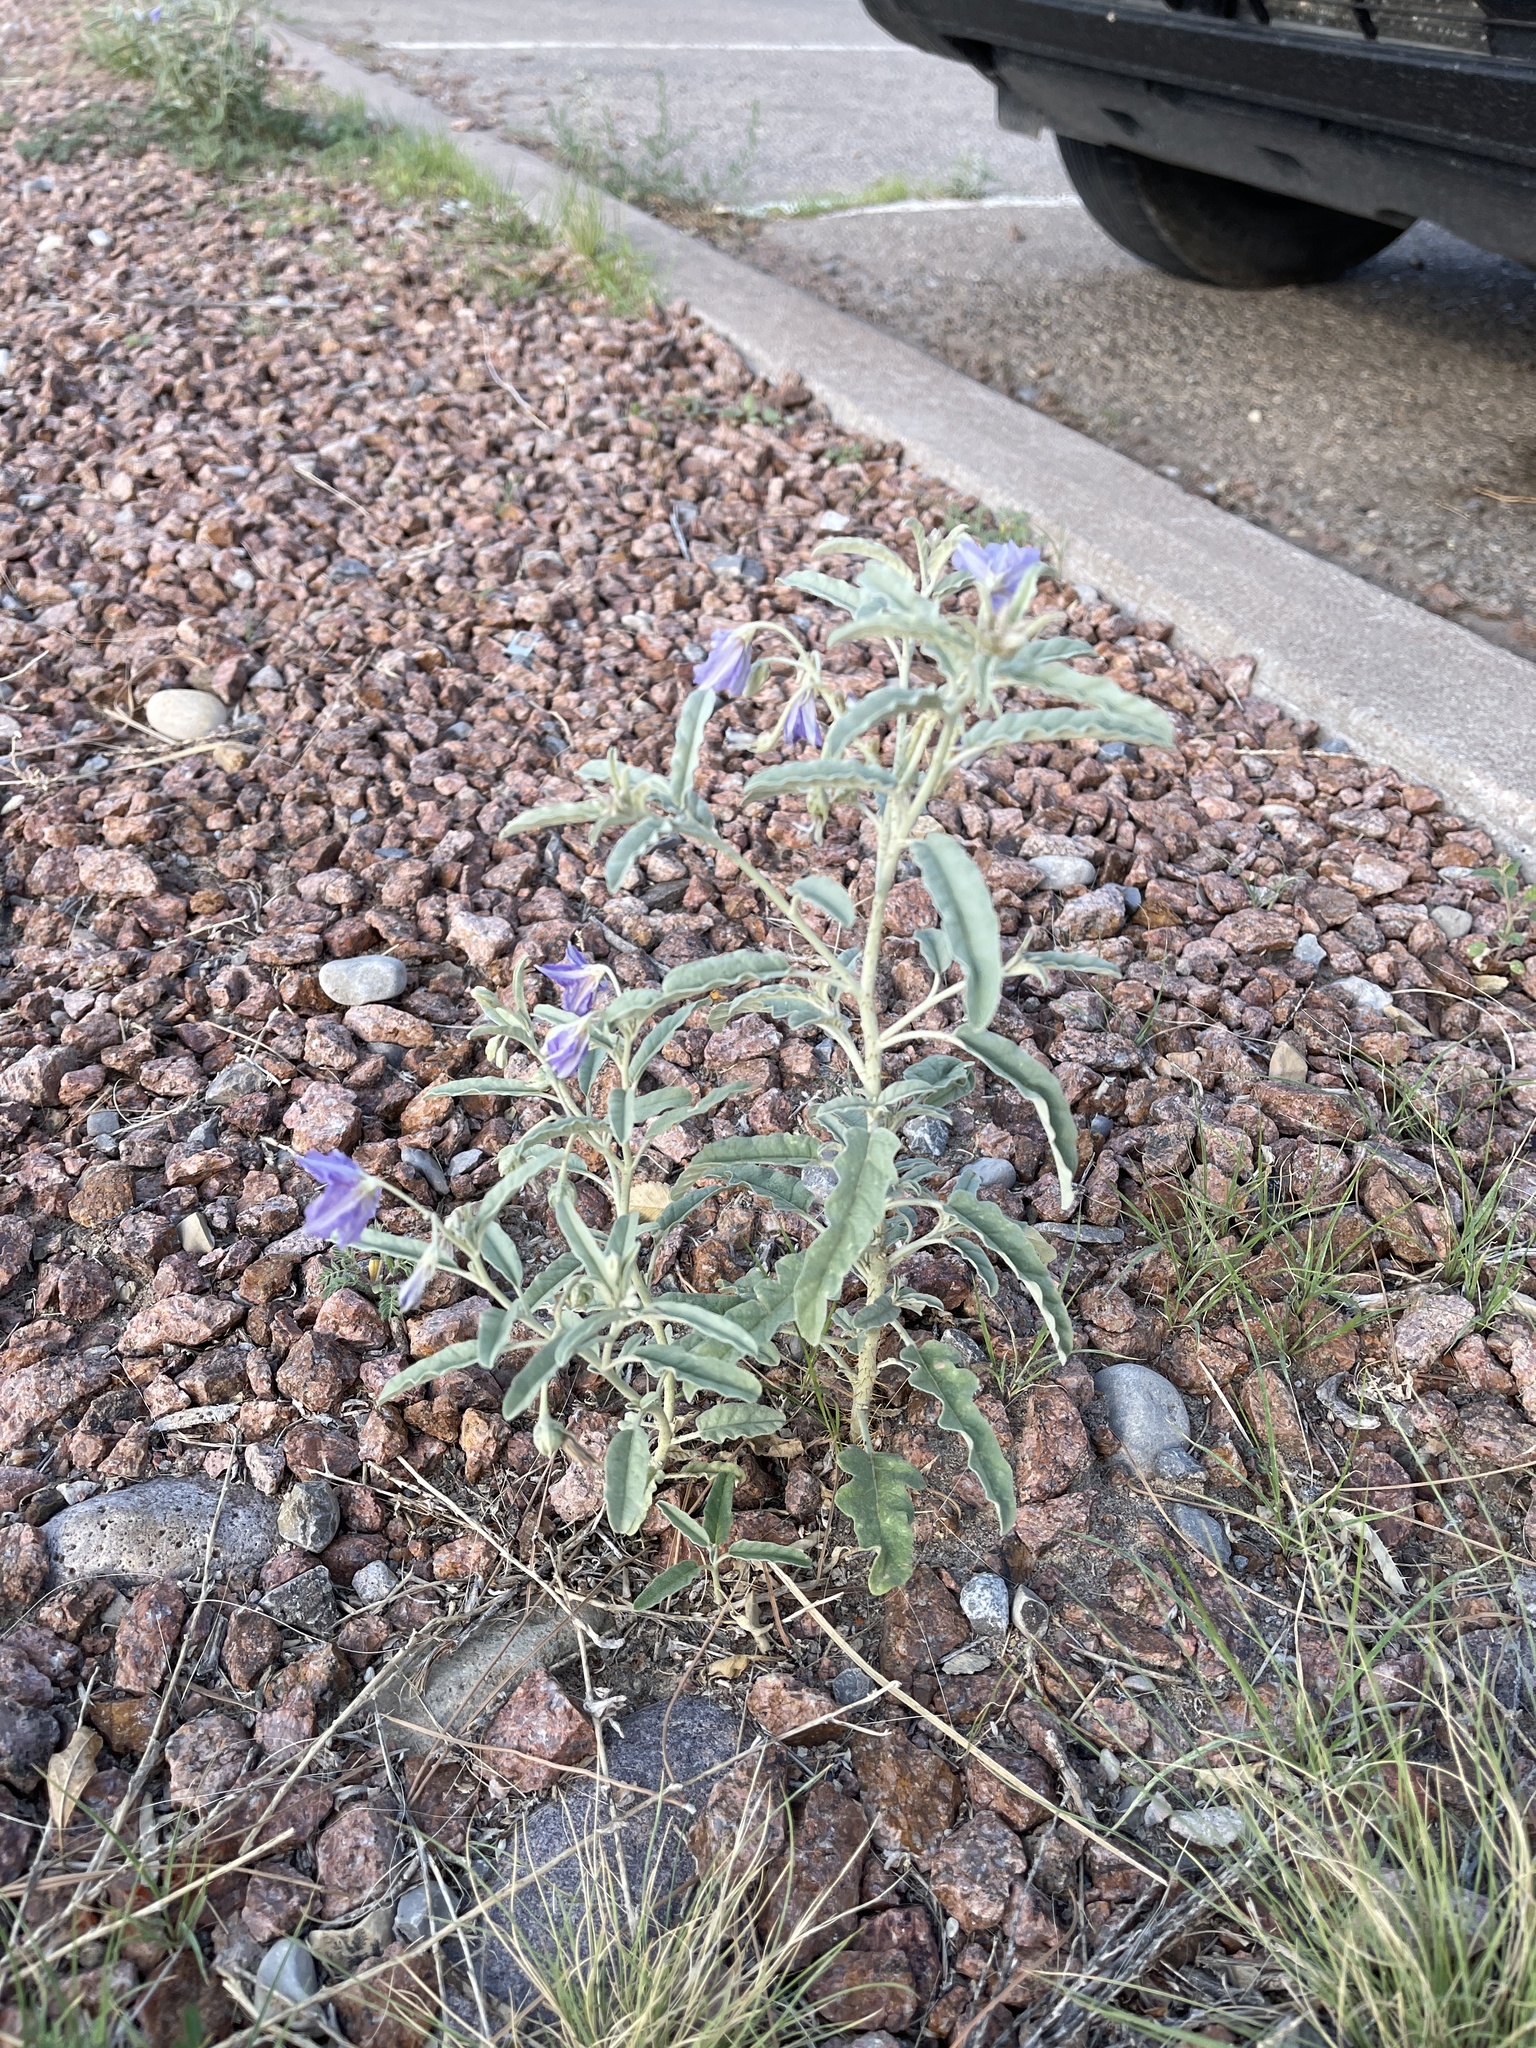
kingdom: Plantae
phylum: Tracheophyta
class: Magnoliopsida
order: Solanales
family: Solanaceae
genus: Solanum
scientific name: Solanum elaeagnifolium
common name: Silverleaf nightshade
